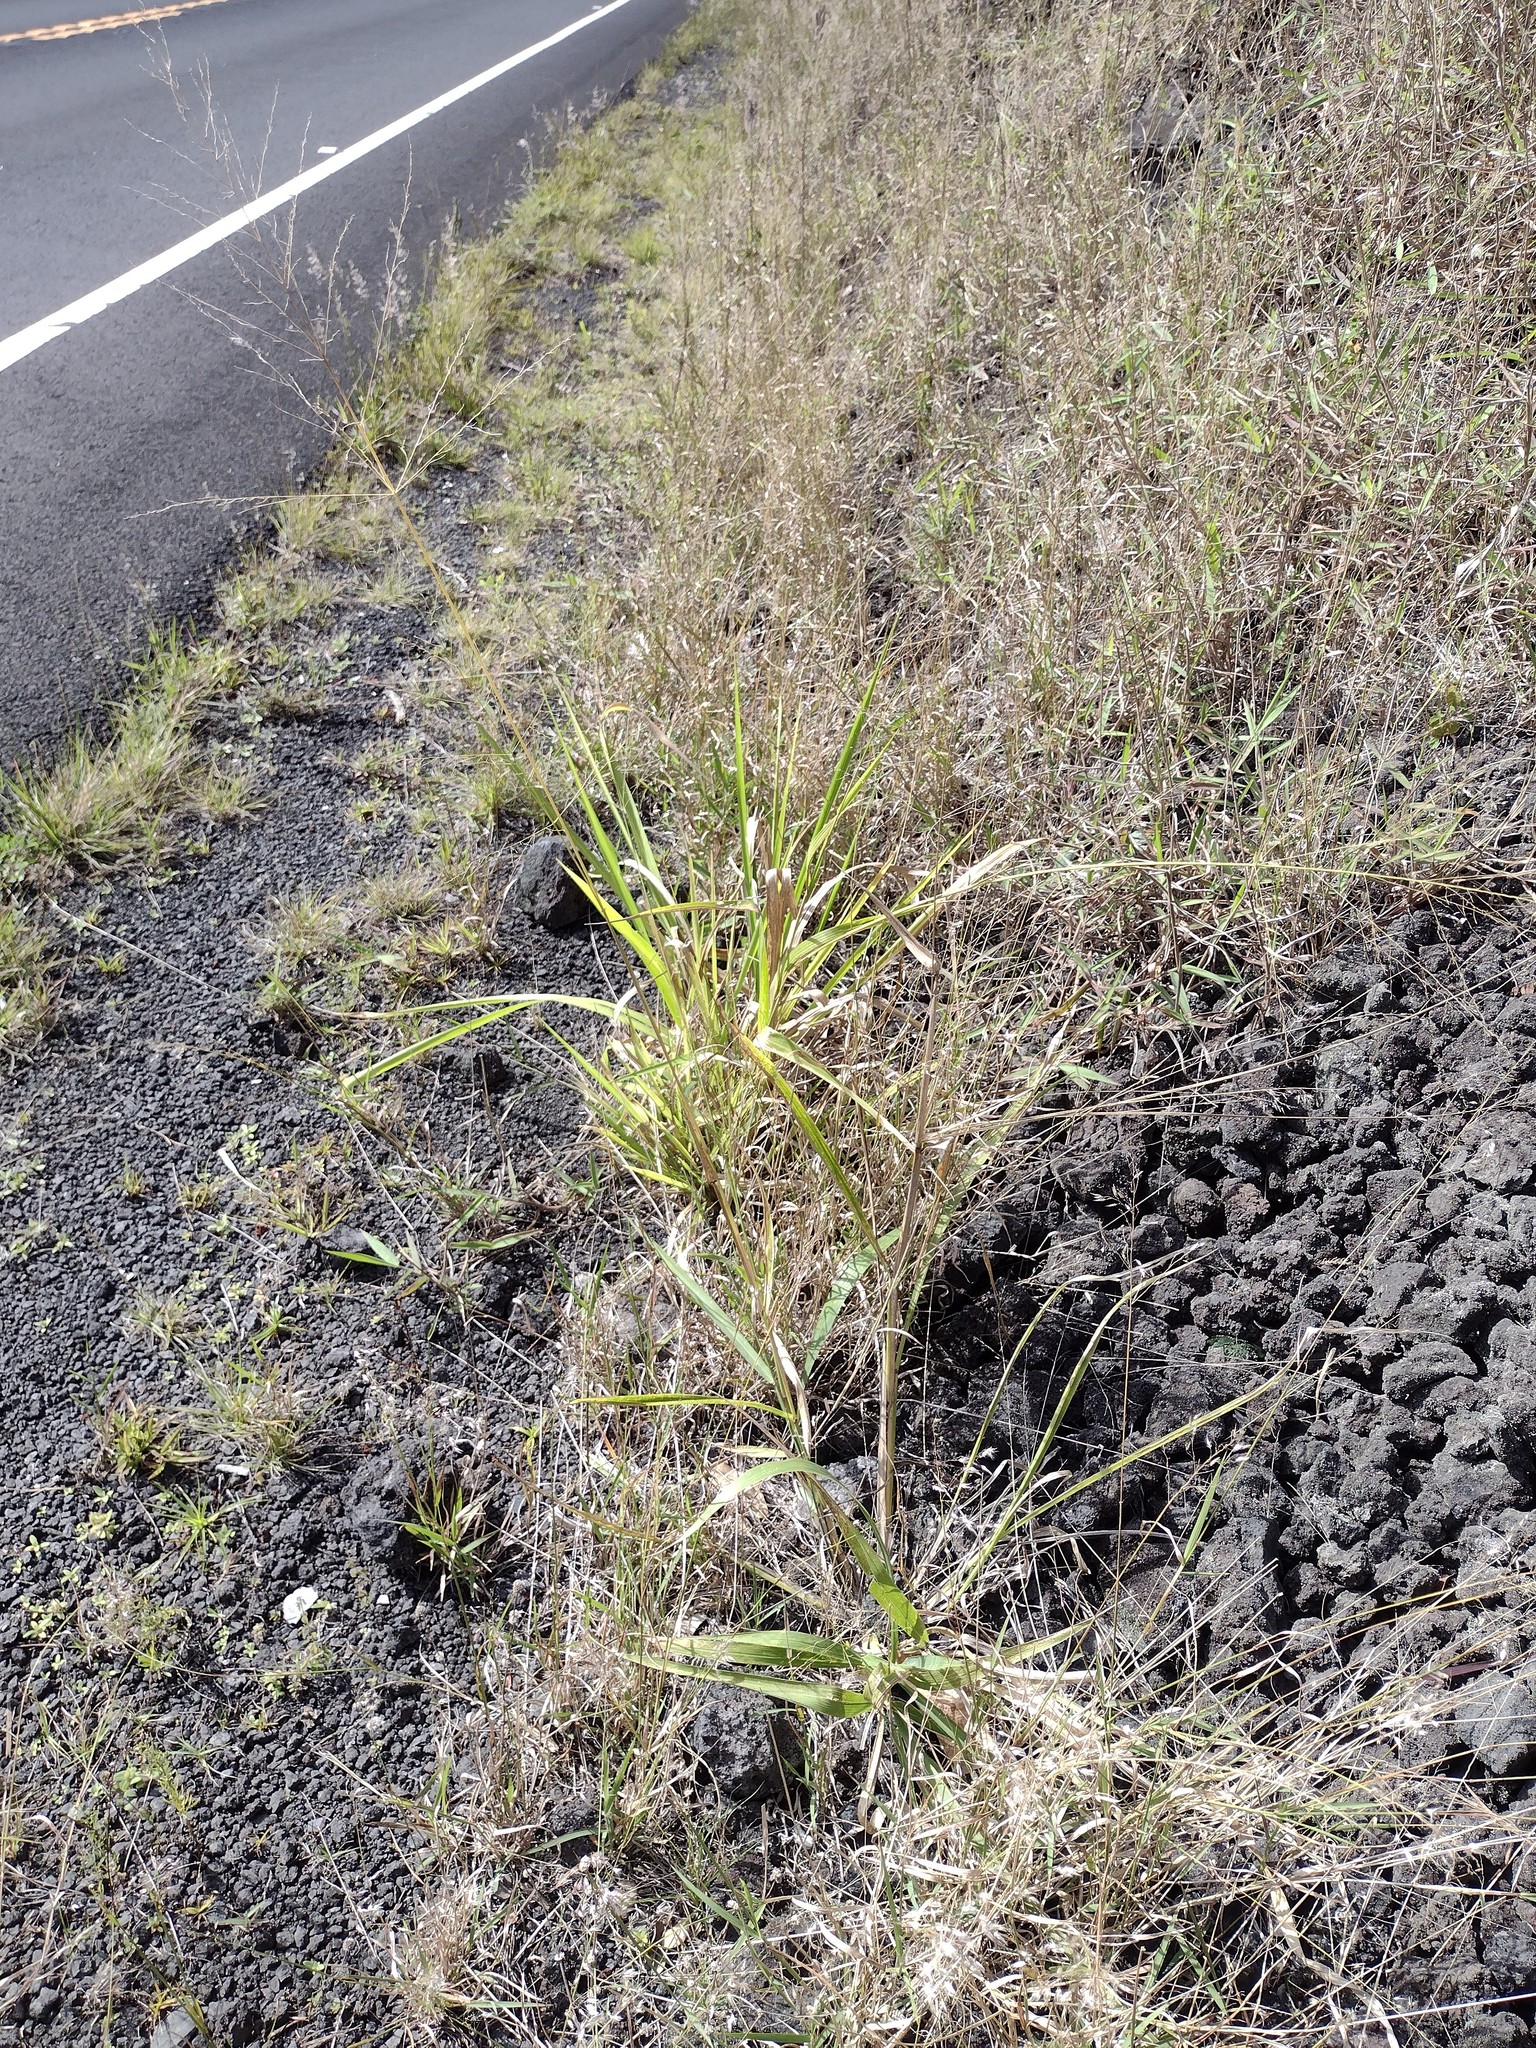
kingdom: Plantae
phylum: Tracheophyta
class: Liliopsida
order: Poales
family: Poaceae
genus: Megathyrsus
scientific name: Megathyrsus maximus
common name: Guineagrass
